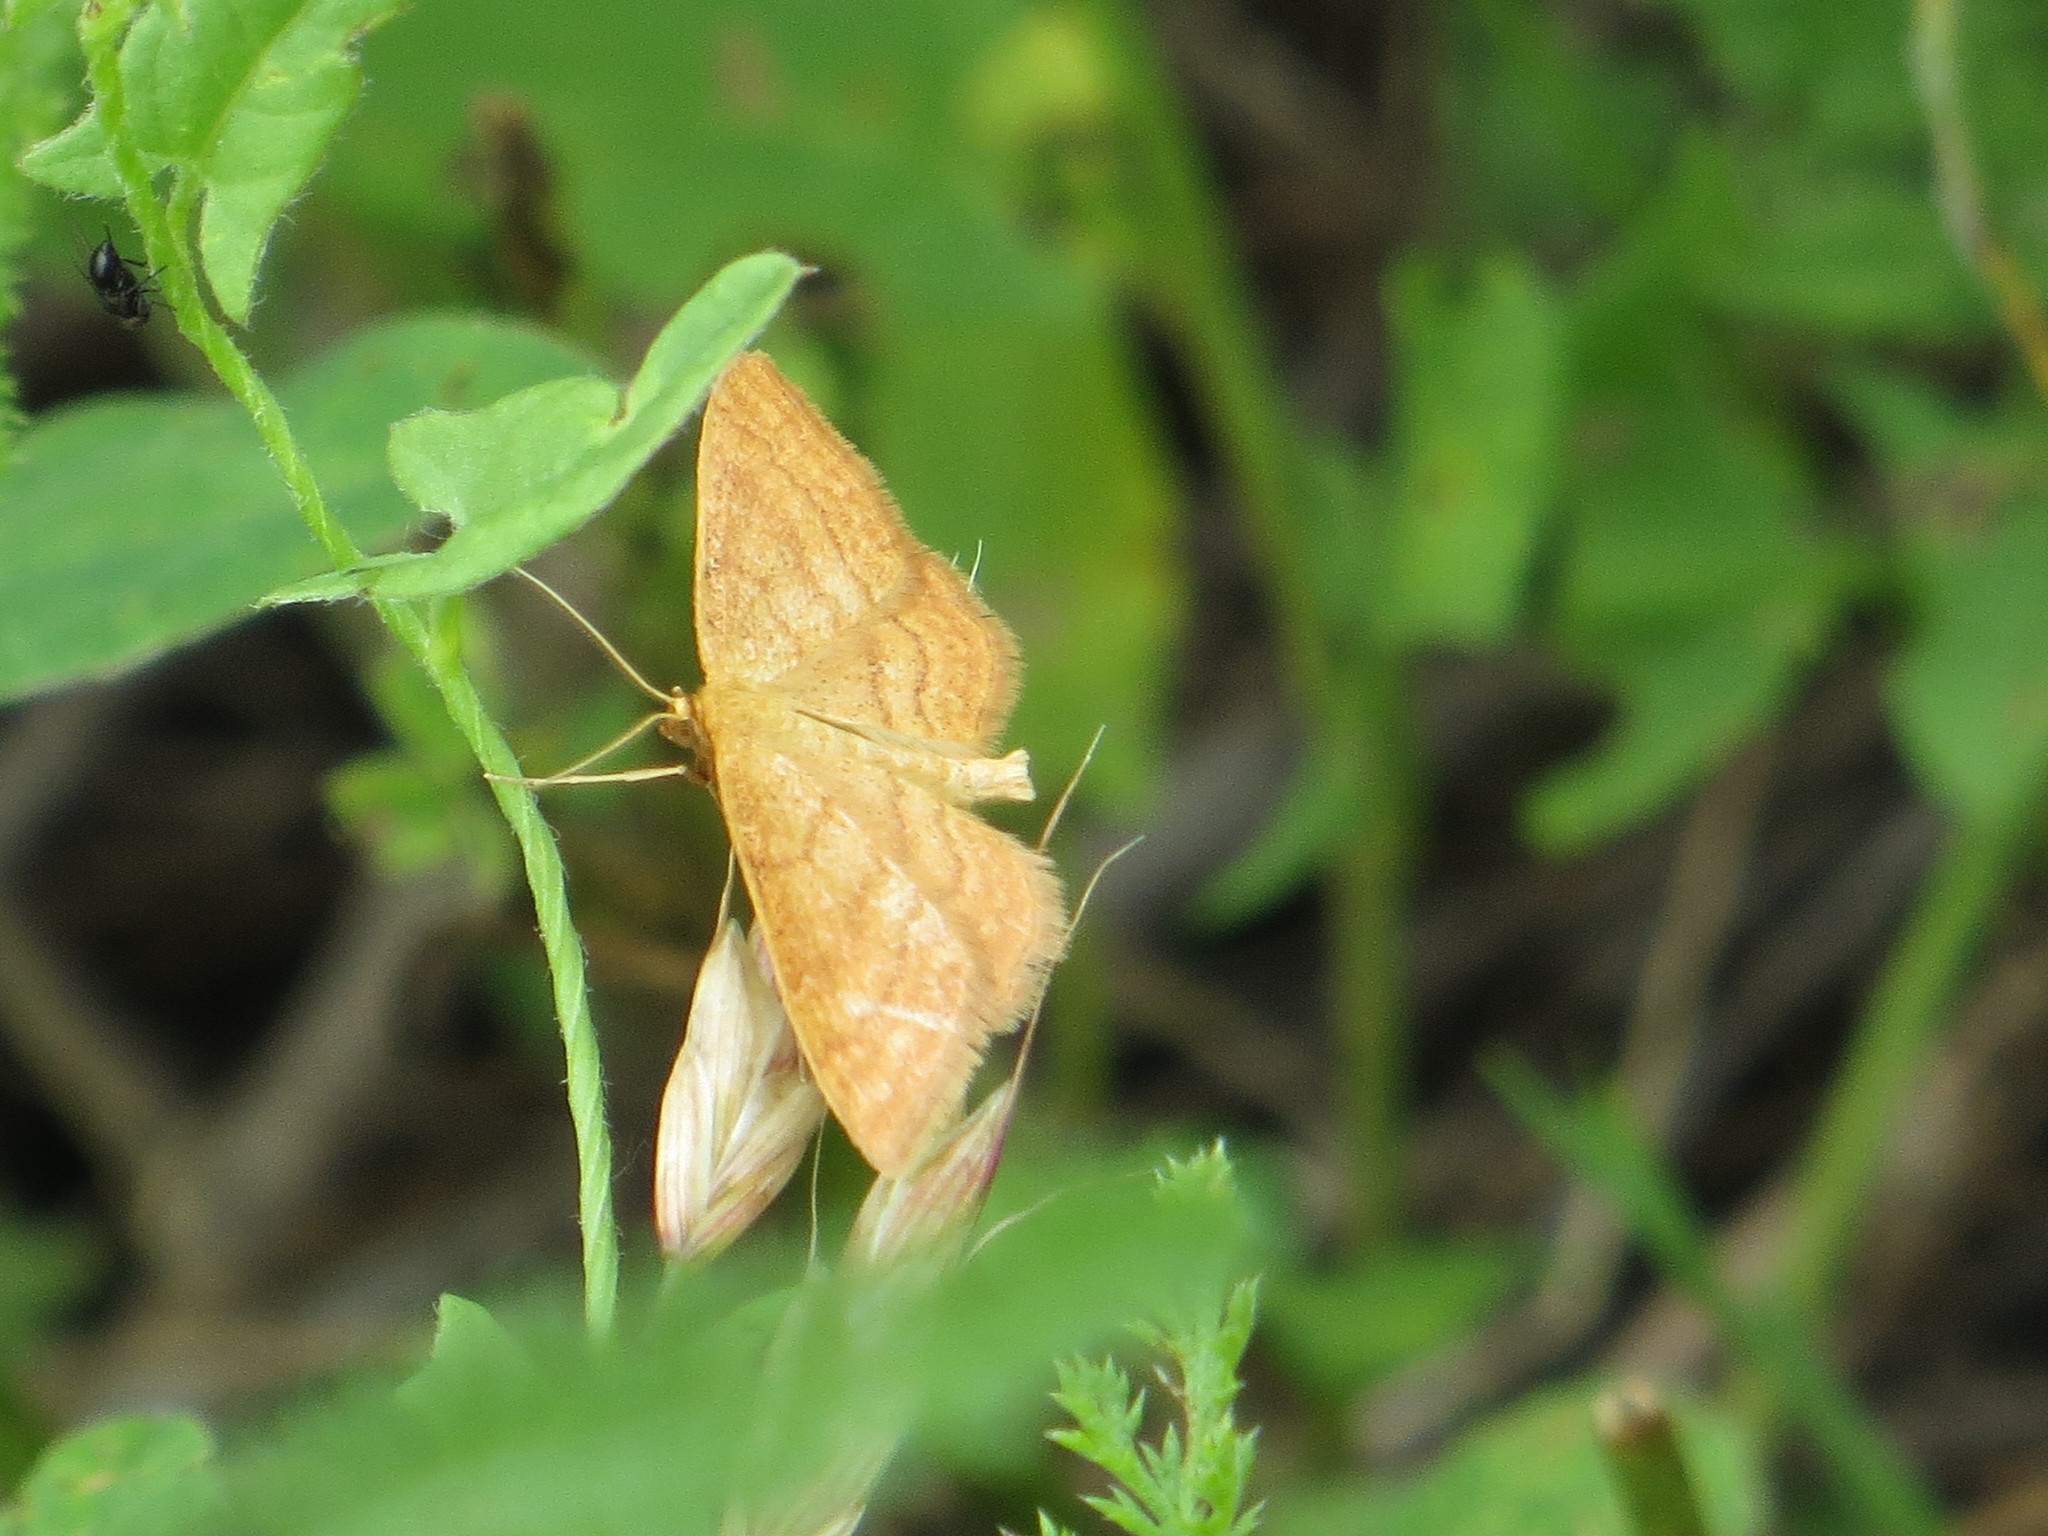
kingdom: Animalia
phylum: Arthropoda
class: Insecta
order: Lepidoptera
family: Geometridae
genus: Idaea
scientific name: Idaea ochrata
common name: Bright wave
